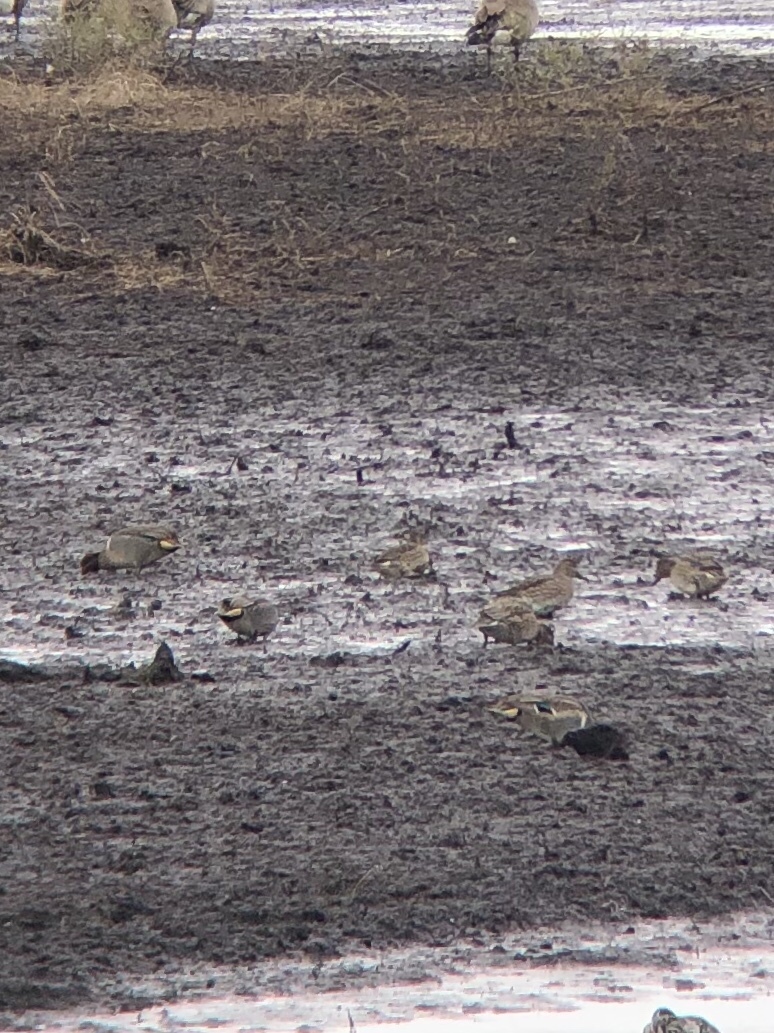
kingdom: Animalia
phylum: Chordata
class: Aves
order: Anseriformes
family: Anatidae
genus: Anas
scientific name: Anas crecca
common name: Eurasian teal
